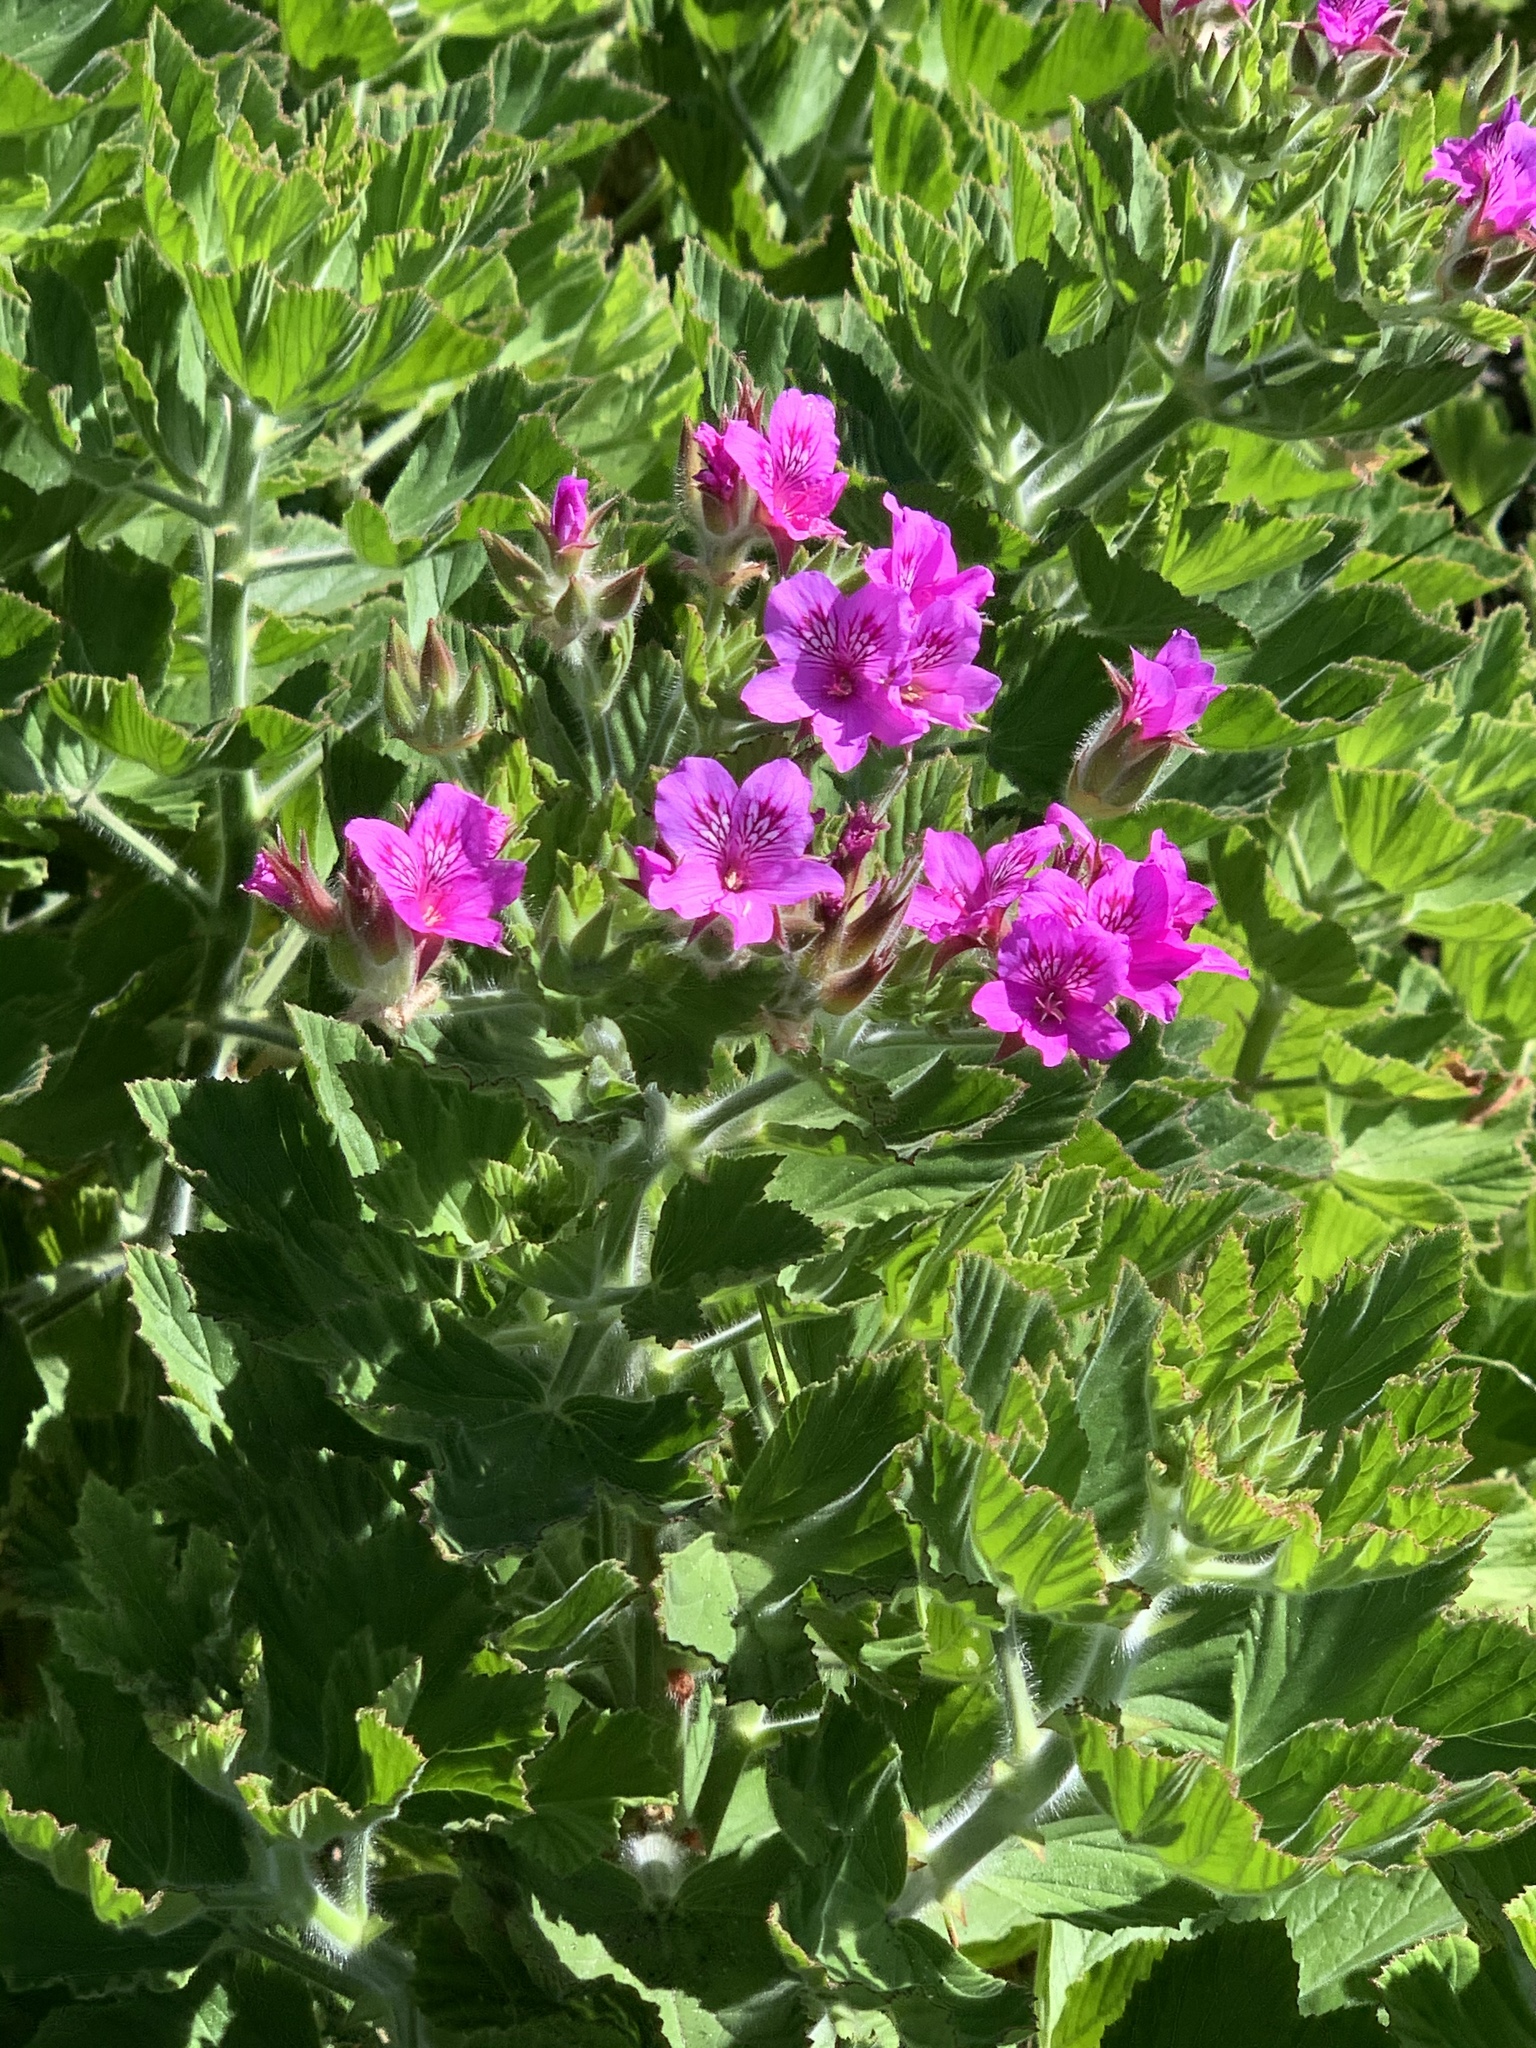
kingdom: Plantae
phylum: Tracheophyta
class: Magnoliopsida
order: Geraniales
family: Geraniaceae
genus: Pelargonium
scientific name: Pelargonium cucullatum
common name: Tree pelargonium
